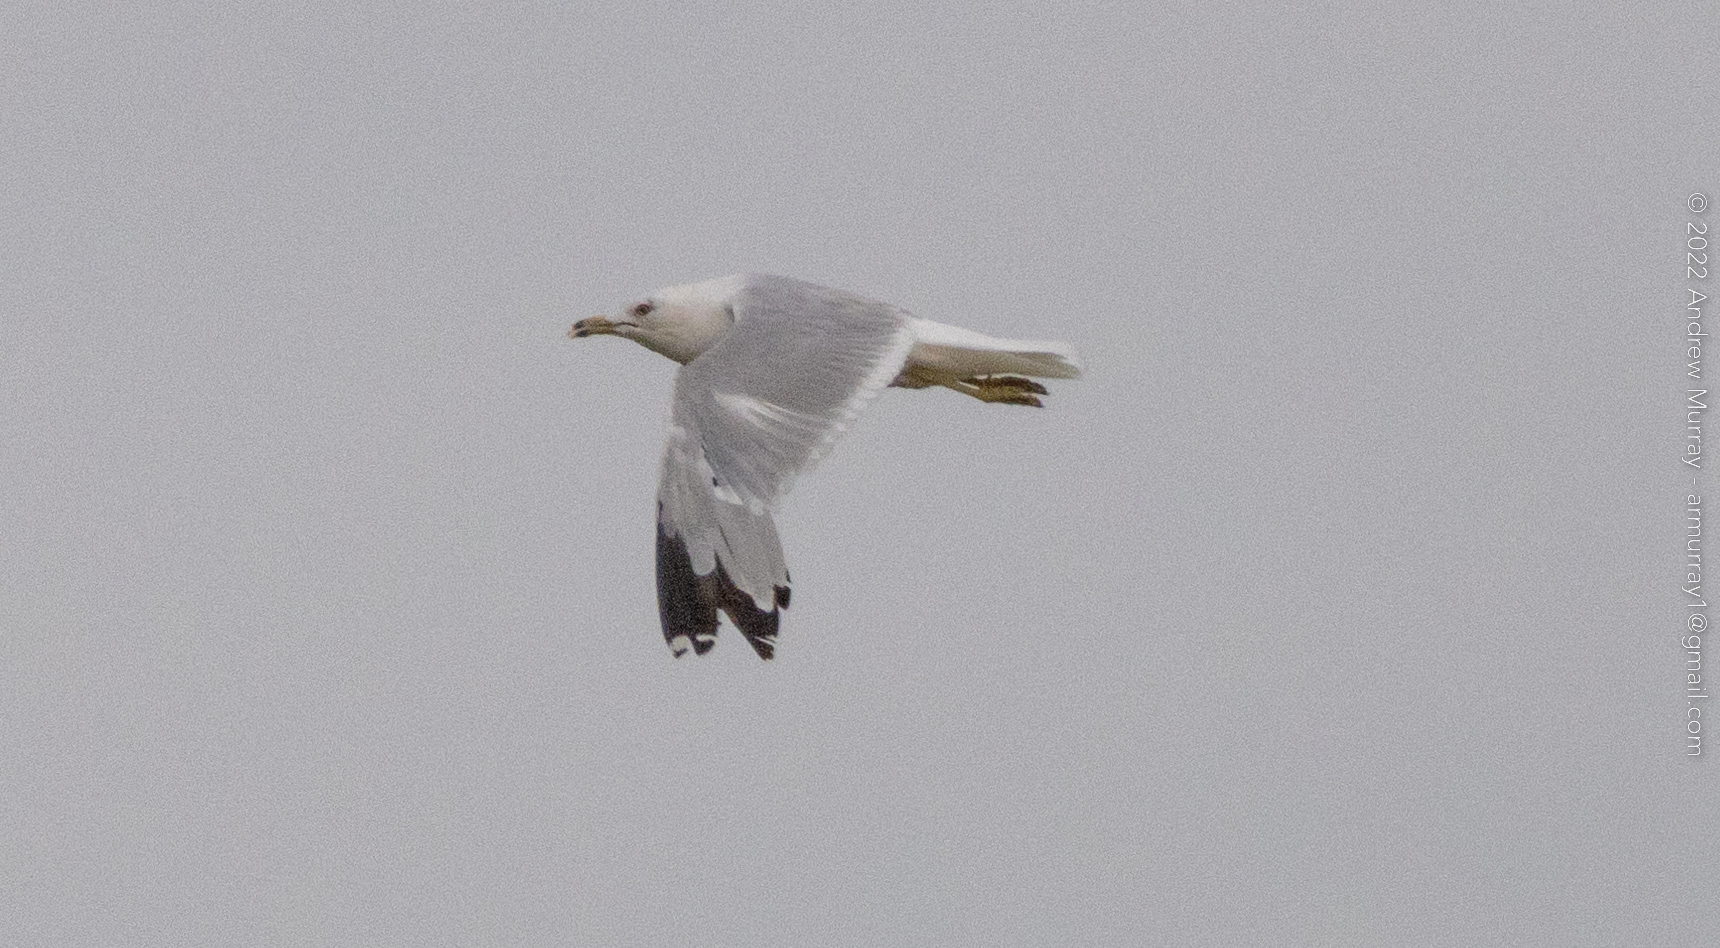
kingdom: Animalia
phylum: Chordata
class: Aves
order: Charadriiformes
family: Laridae
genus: Larus
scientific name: Larus delawarensis
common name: Ring-billed gull
